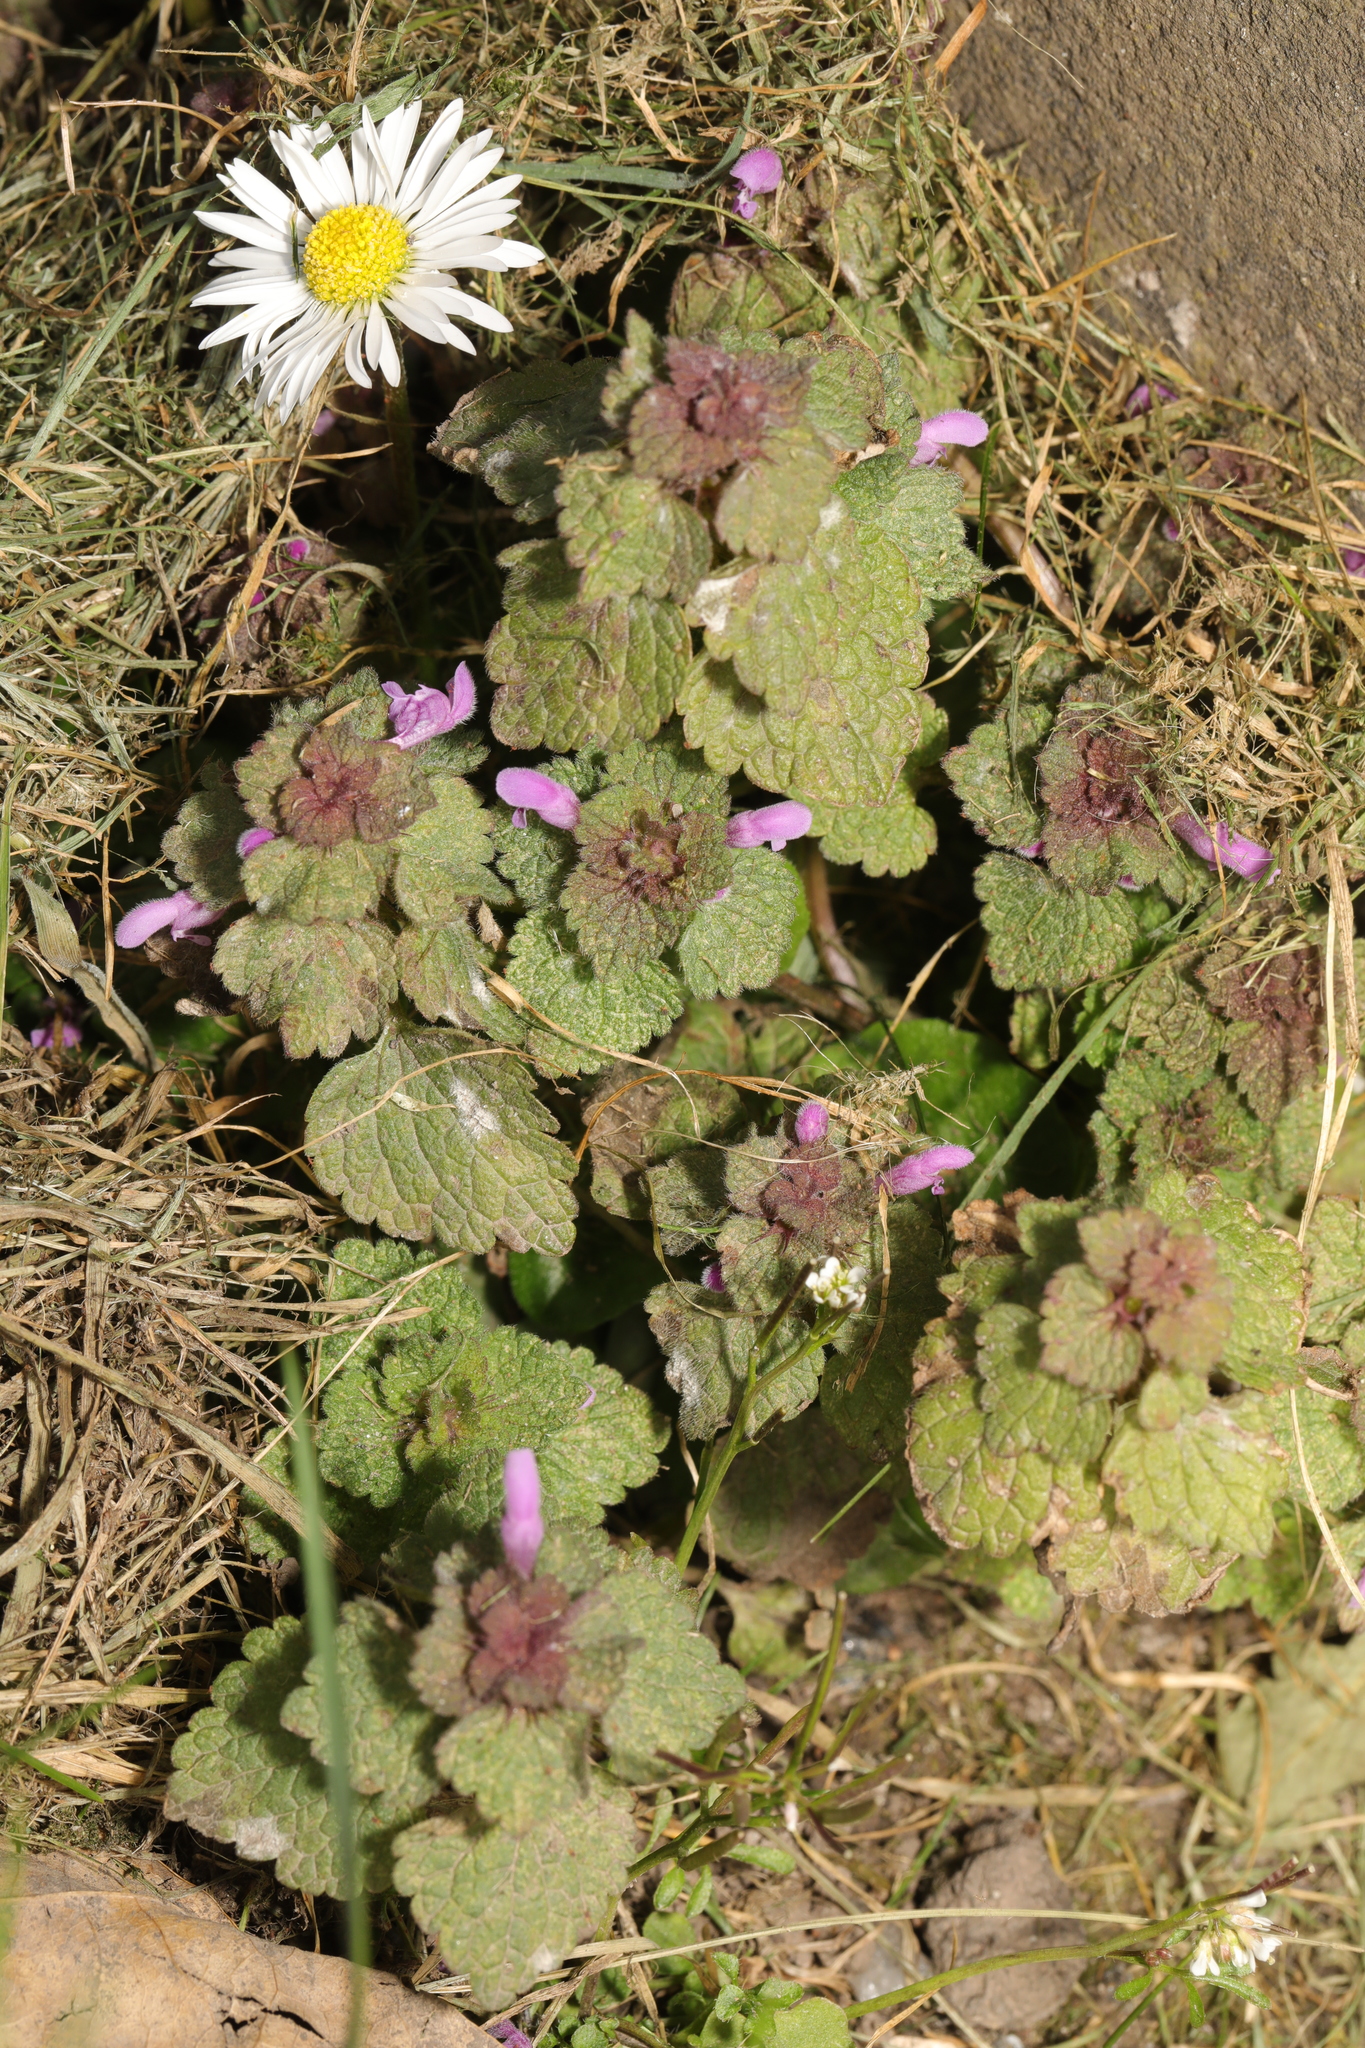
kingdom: Plantae
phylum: Tracheophyta
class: Magnoliopsida
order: Lamiales
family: Lamiaceae
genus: Lamium
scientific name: Lamium purpureum
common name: Red dead-nettle
